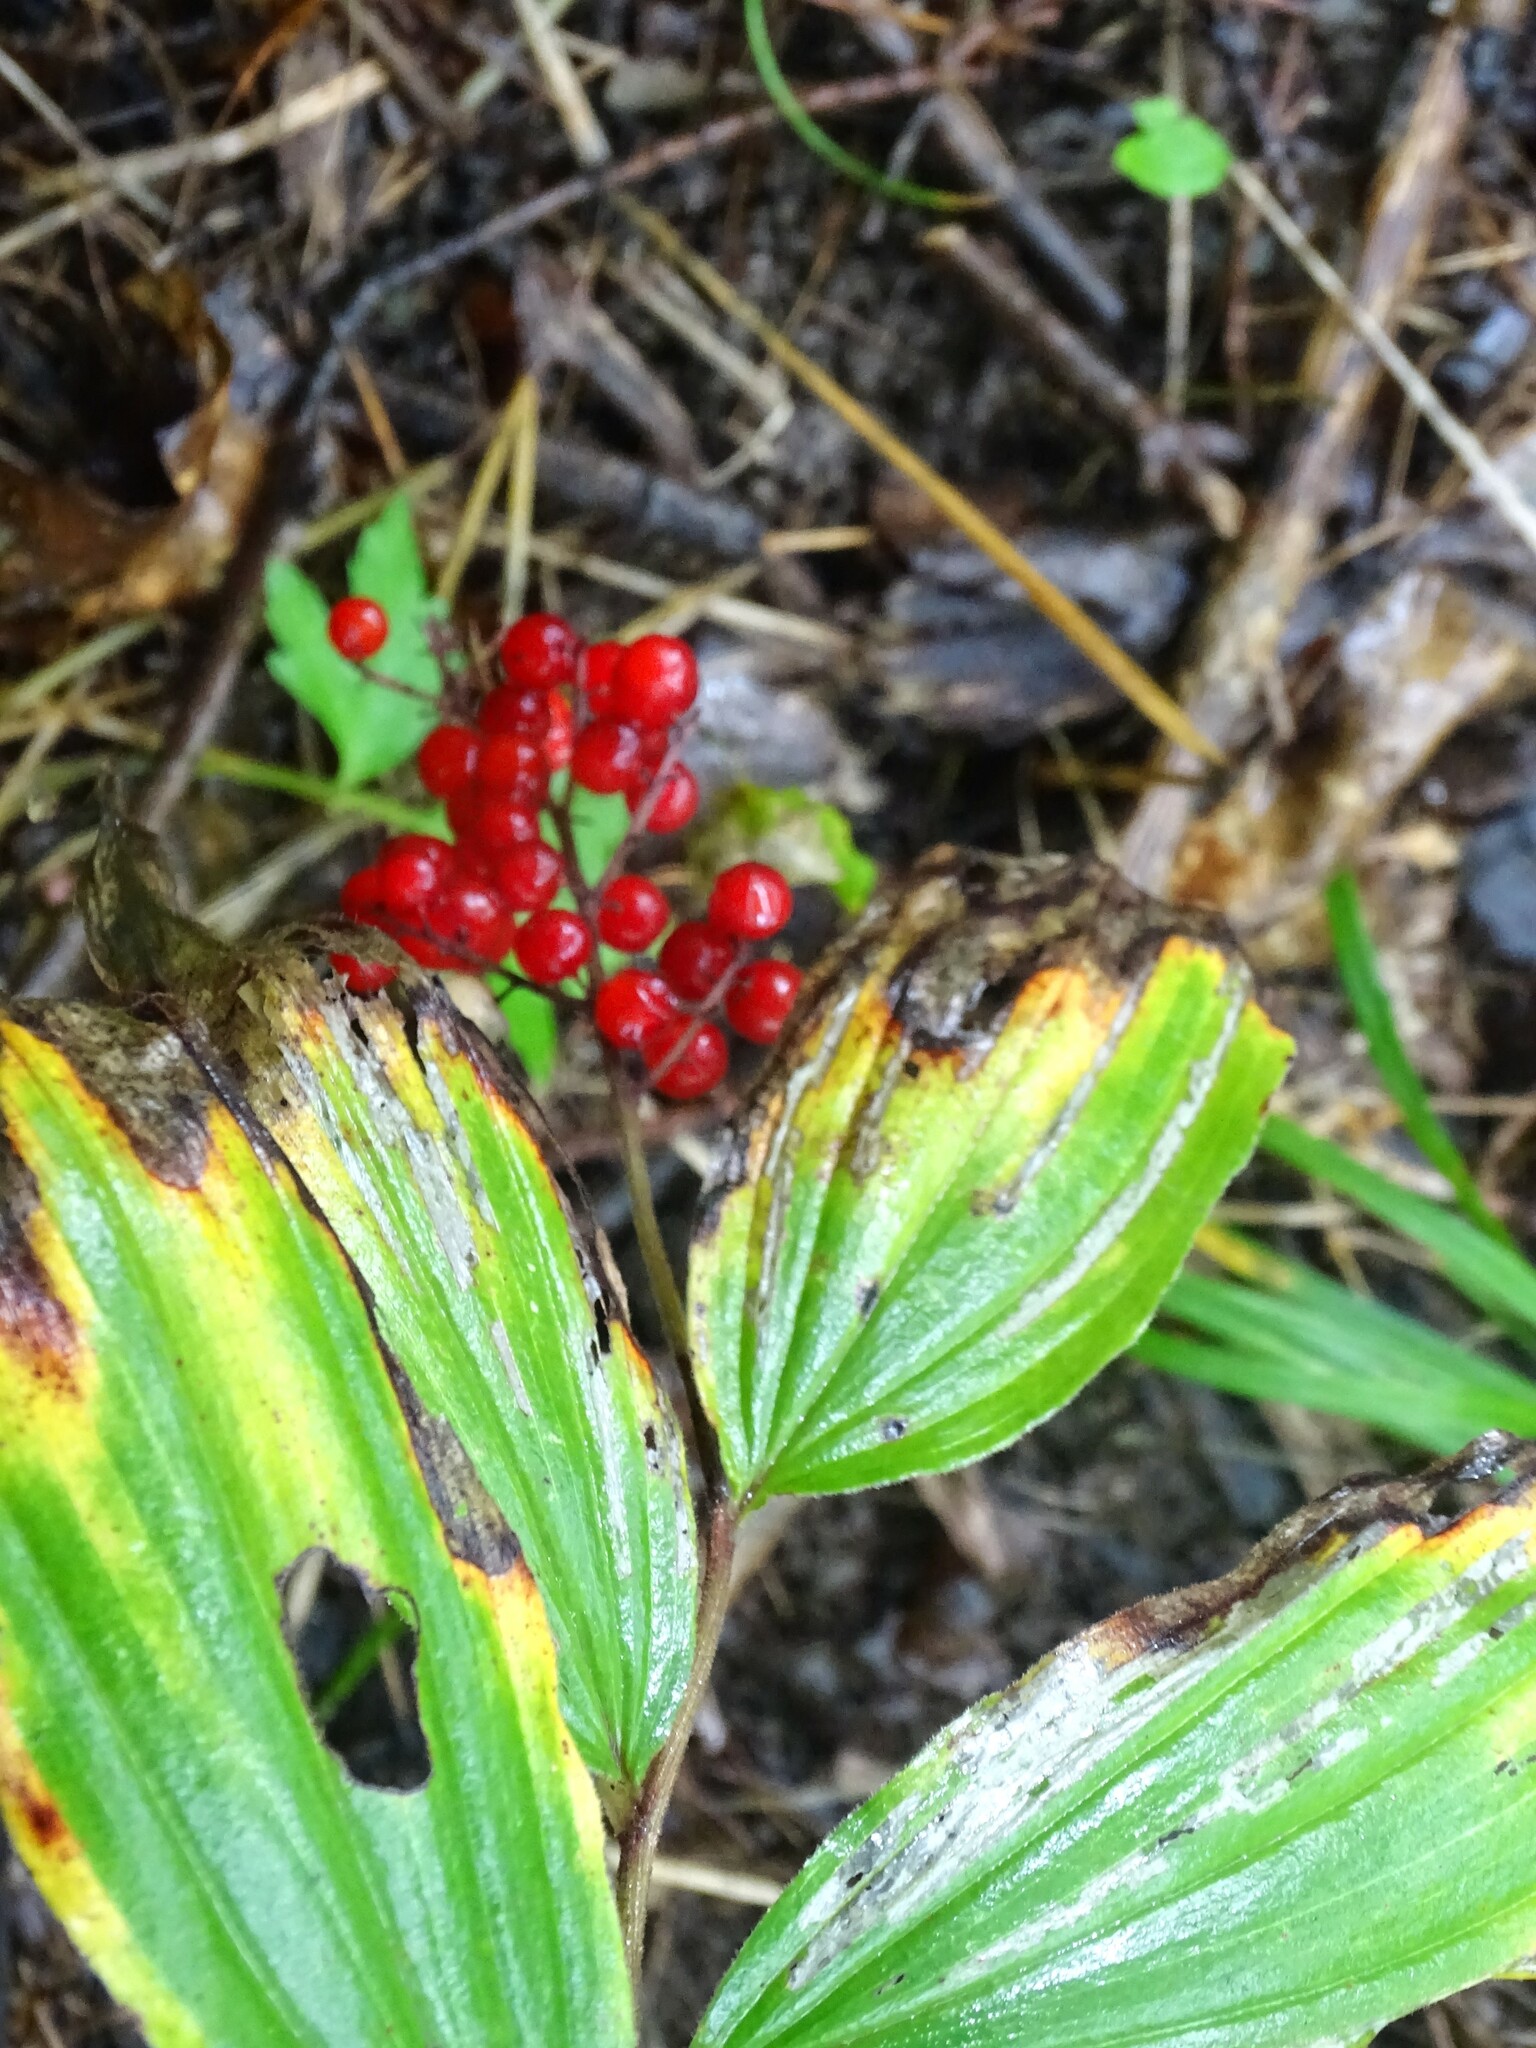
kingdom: Plantae
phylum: Tracheophyta
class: Liliopsida
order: Asparagales
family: Asparagaceae
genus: Maianthemum
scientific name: Maianthemum racemosum
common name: False spikenard
